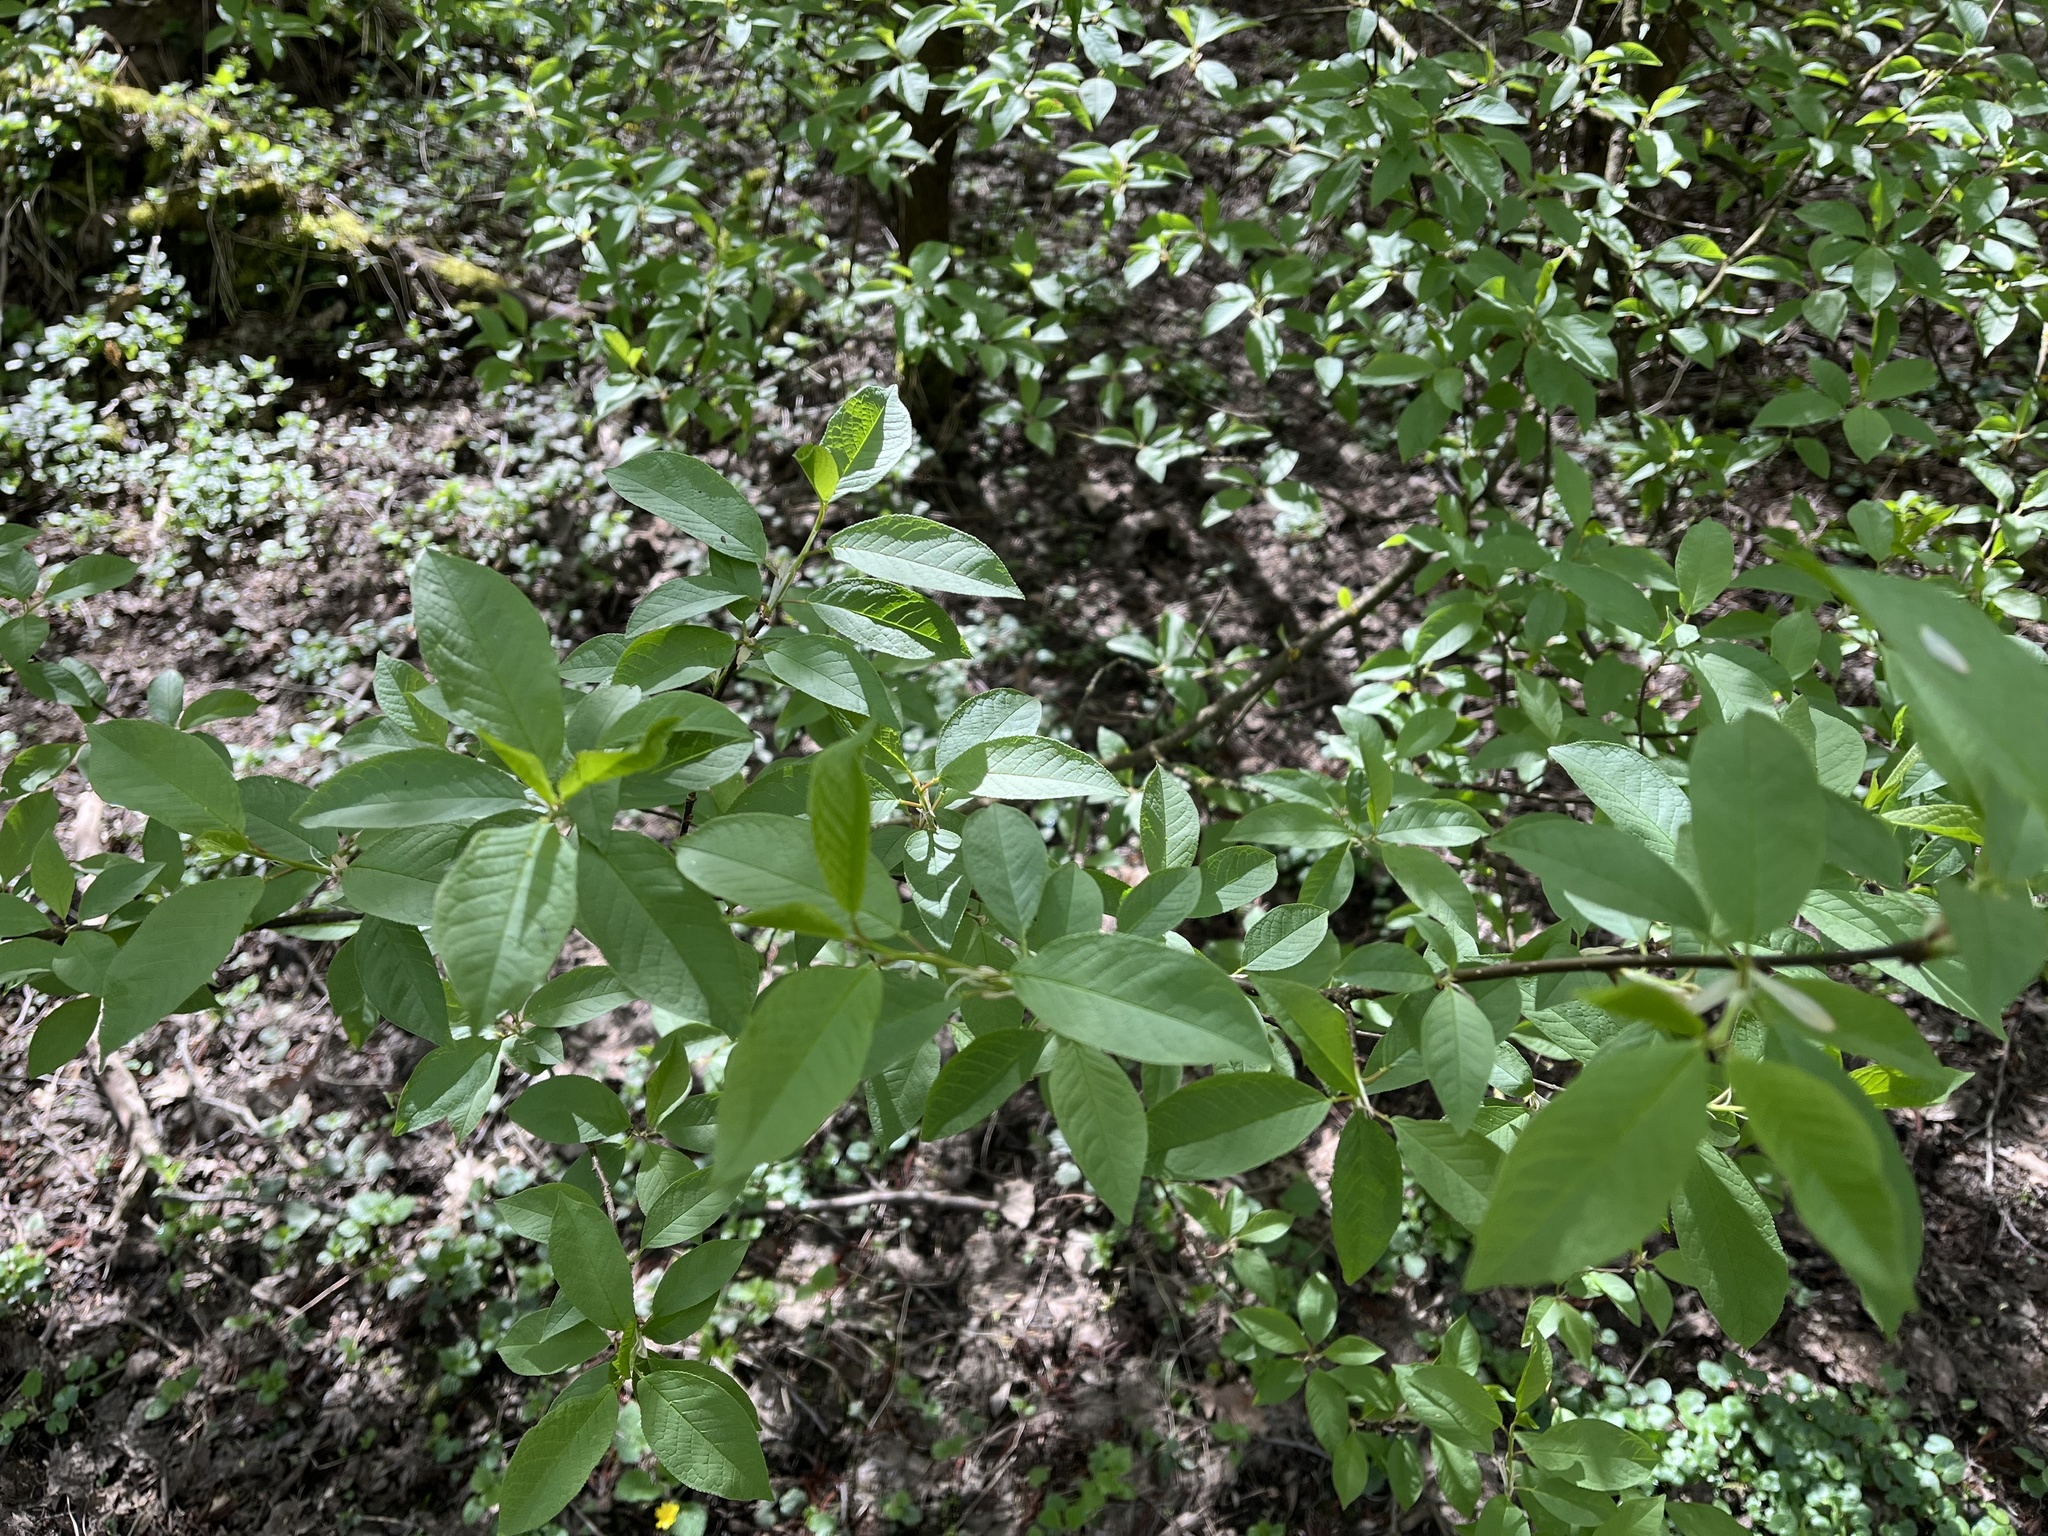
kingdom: Plantae
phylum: Tracheophyta
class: Magnoliopsida
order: Rosales
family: Rosaceae
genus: Prunus
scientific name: Prunus padus
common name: Bird cherry
